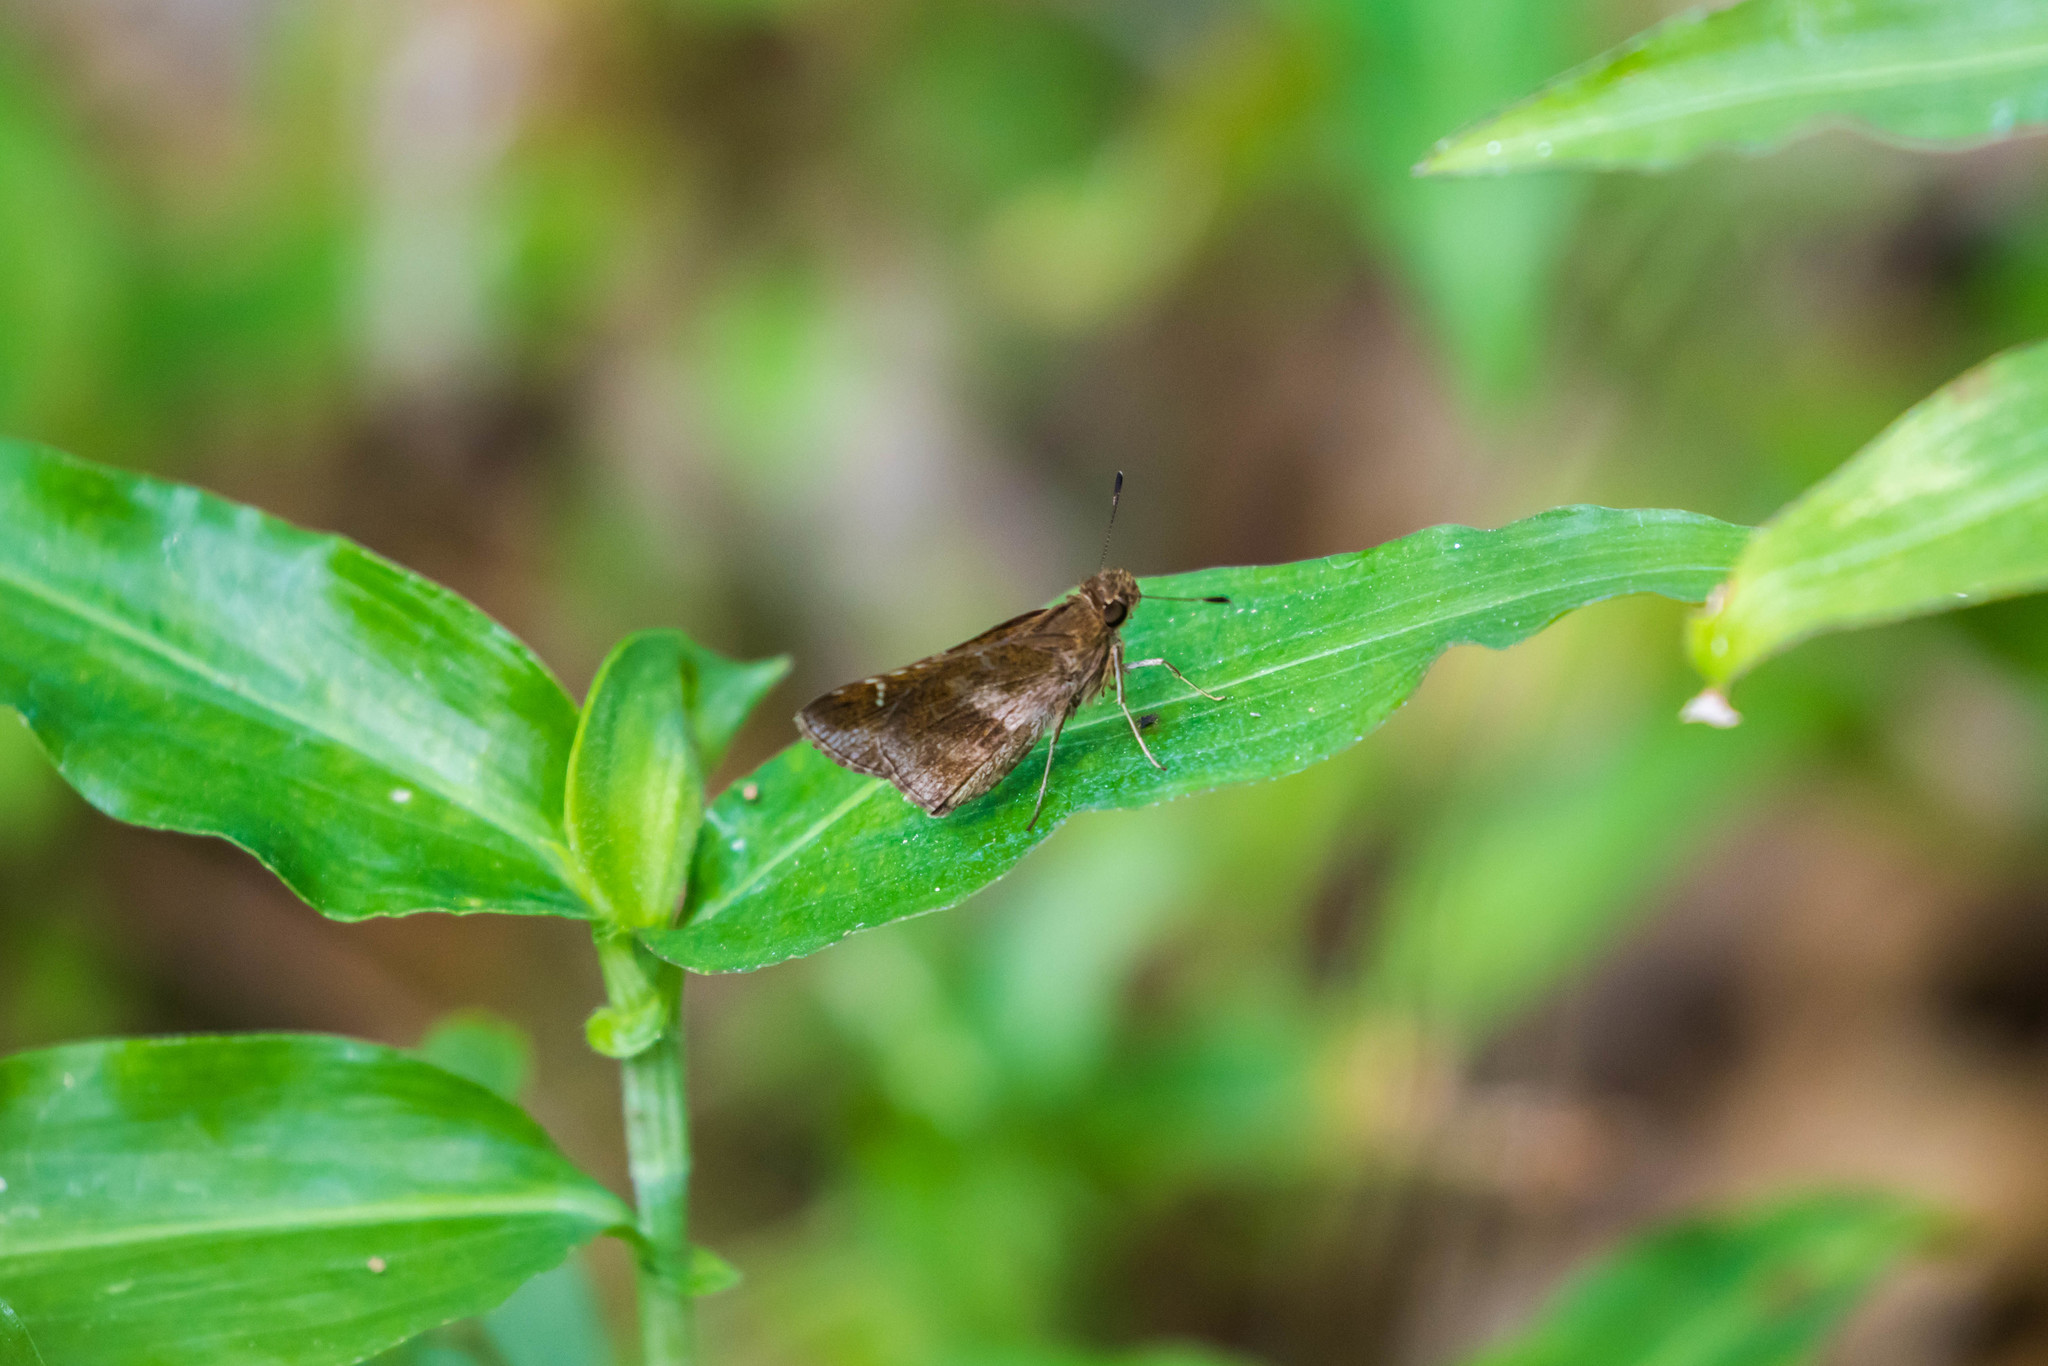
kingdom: Animalia
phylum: Arthropoda
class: Insecta
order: Lepidoptera
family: Hesperiidae
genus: Lerema
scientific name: Lerema accius
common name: Clouded skipper
